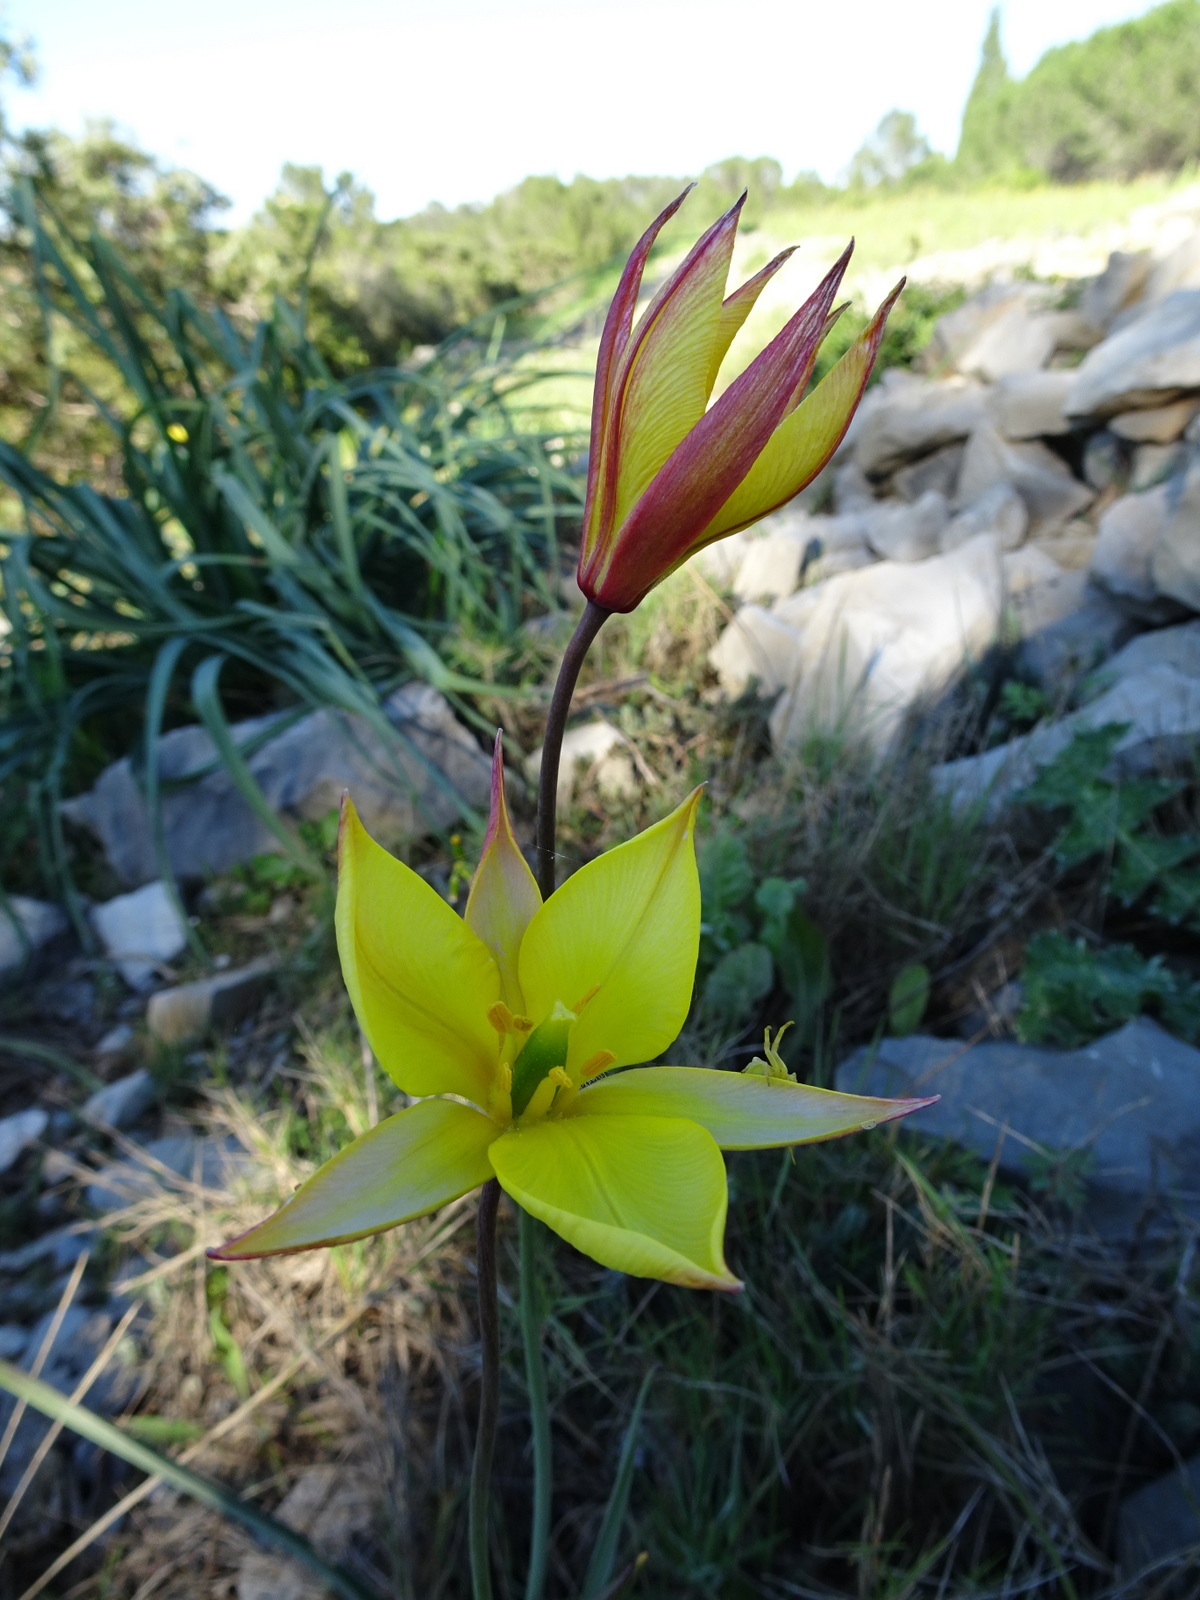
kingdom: Plantae
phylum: Tracheophyta
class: Liliopsida
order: Liliales
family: Liliaceae
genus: Tulipa
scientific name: Tulipa sylvestris
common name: Wild tulip
